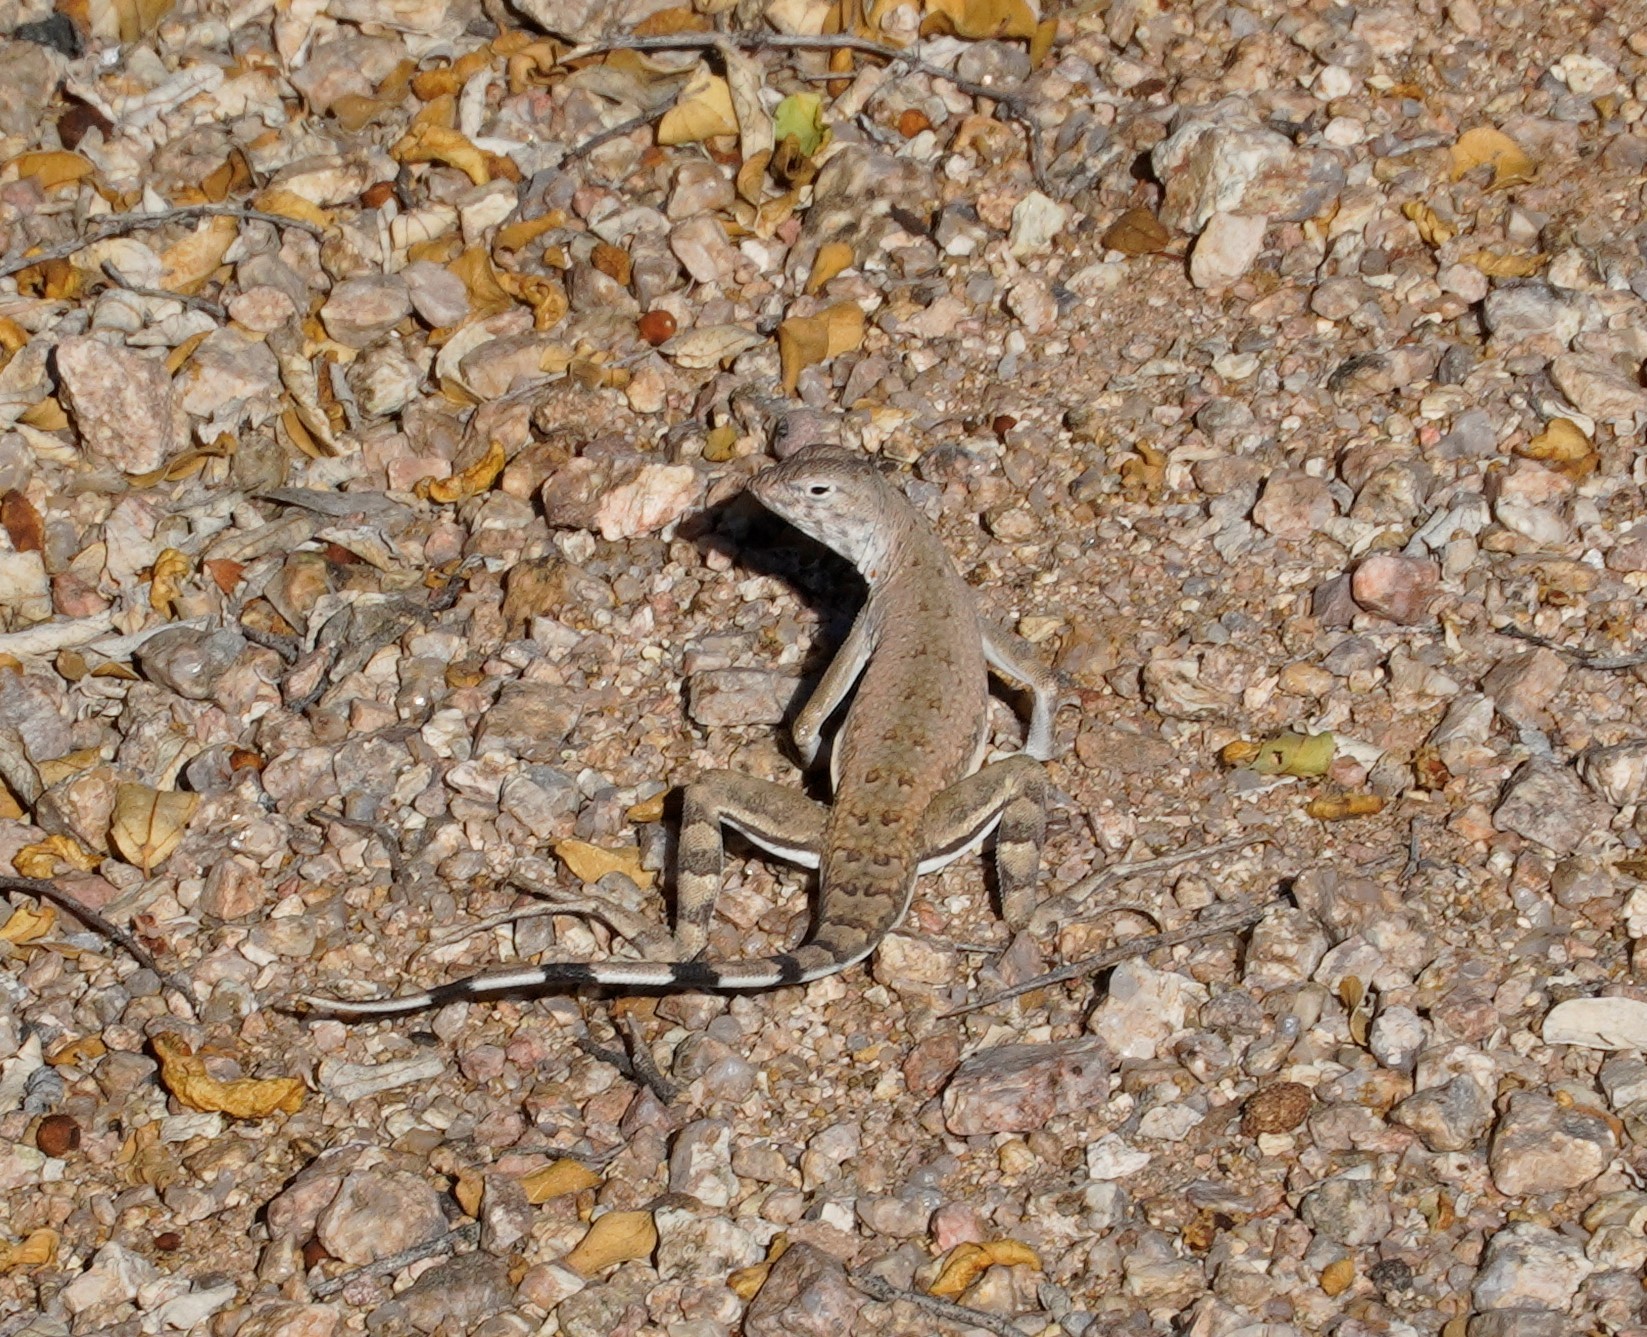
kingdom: Animalia
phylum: Chordata
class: Squamata
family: Phrynosomatidae
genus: Callisaurus
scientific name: Callisaurus draconoides
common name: Zebra-tailed lizard
